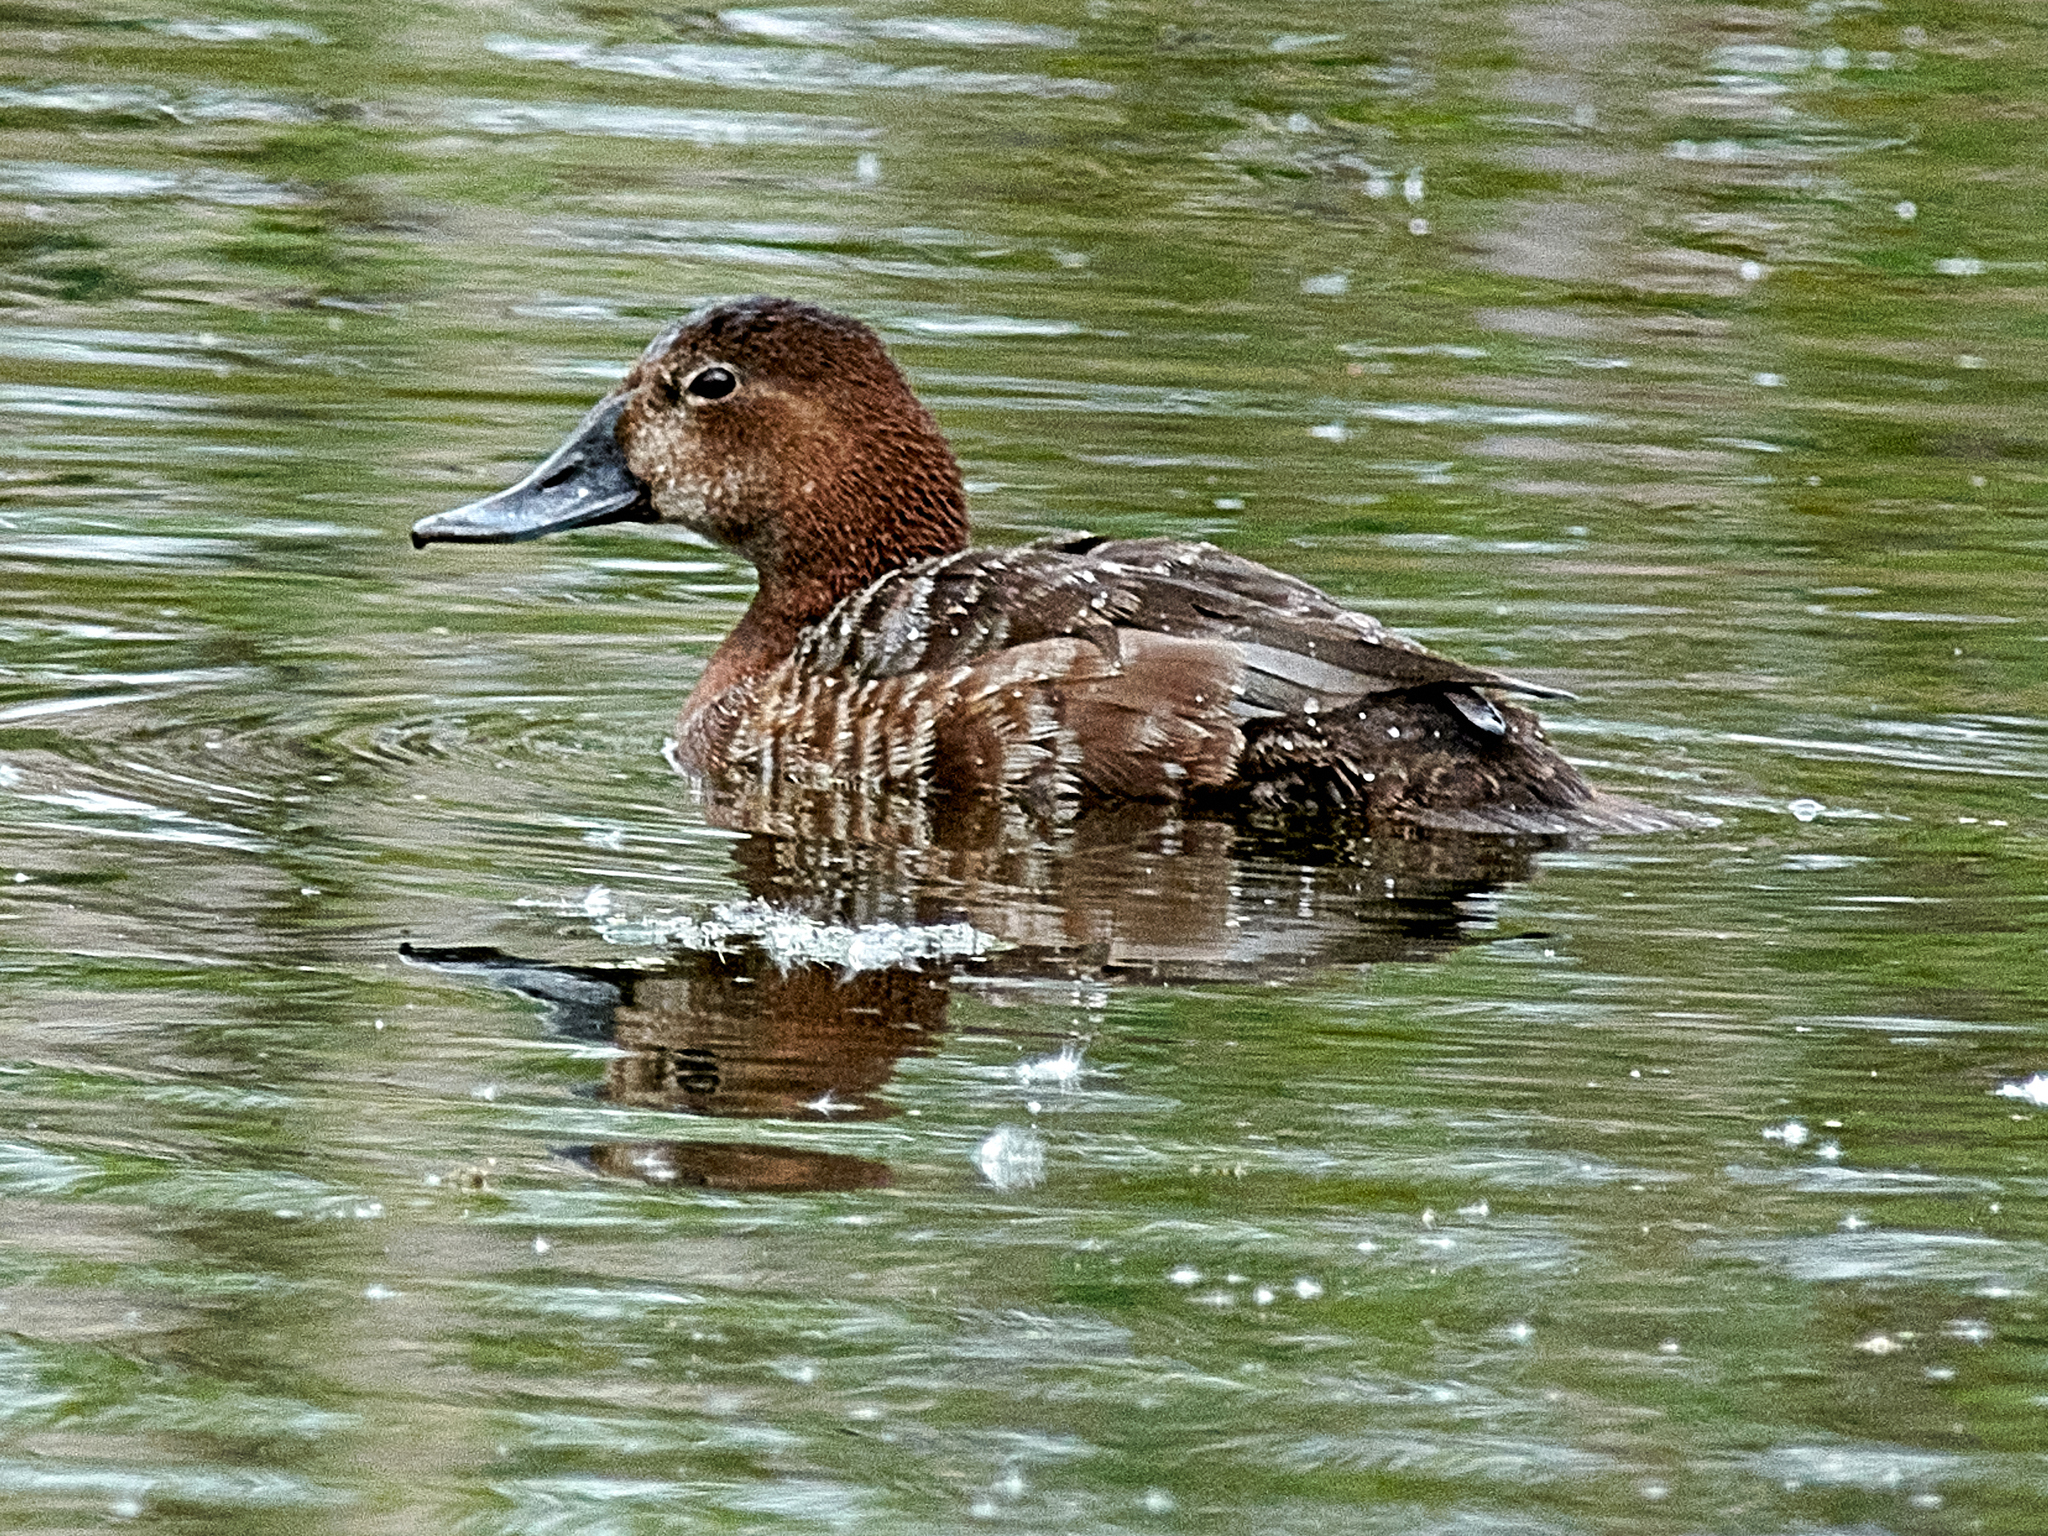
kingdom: Animalia
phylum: Chordata
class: Aves
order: Anseriformes
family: Anatidae
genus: Aythya
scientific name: Aythya ferina
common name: Common pochard
